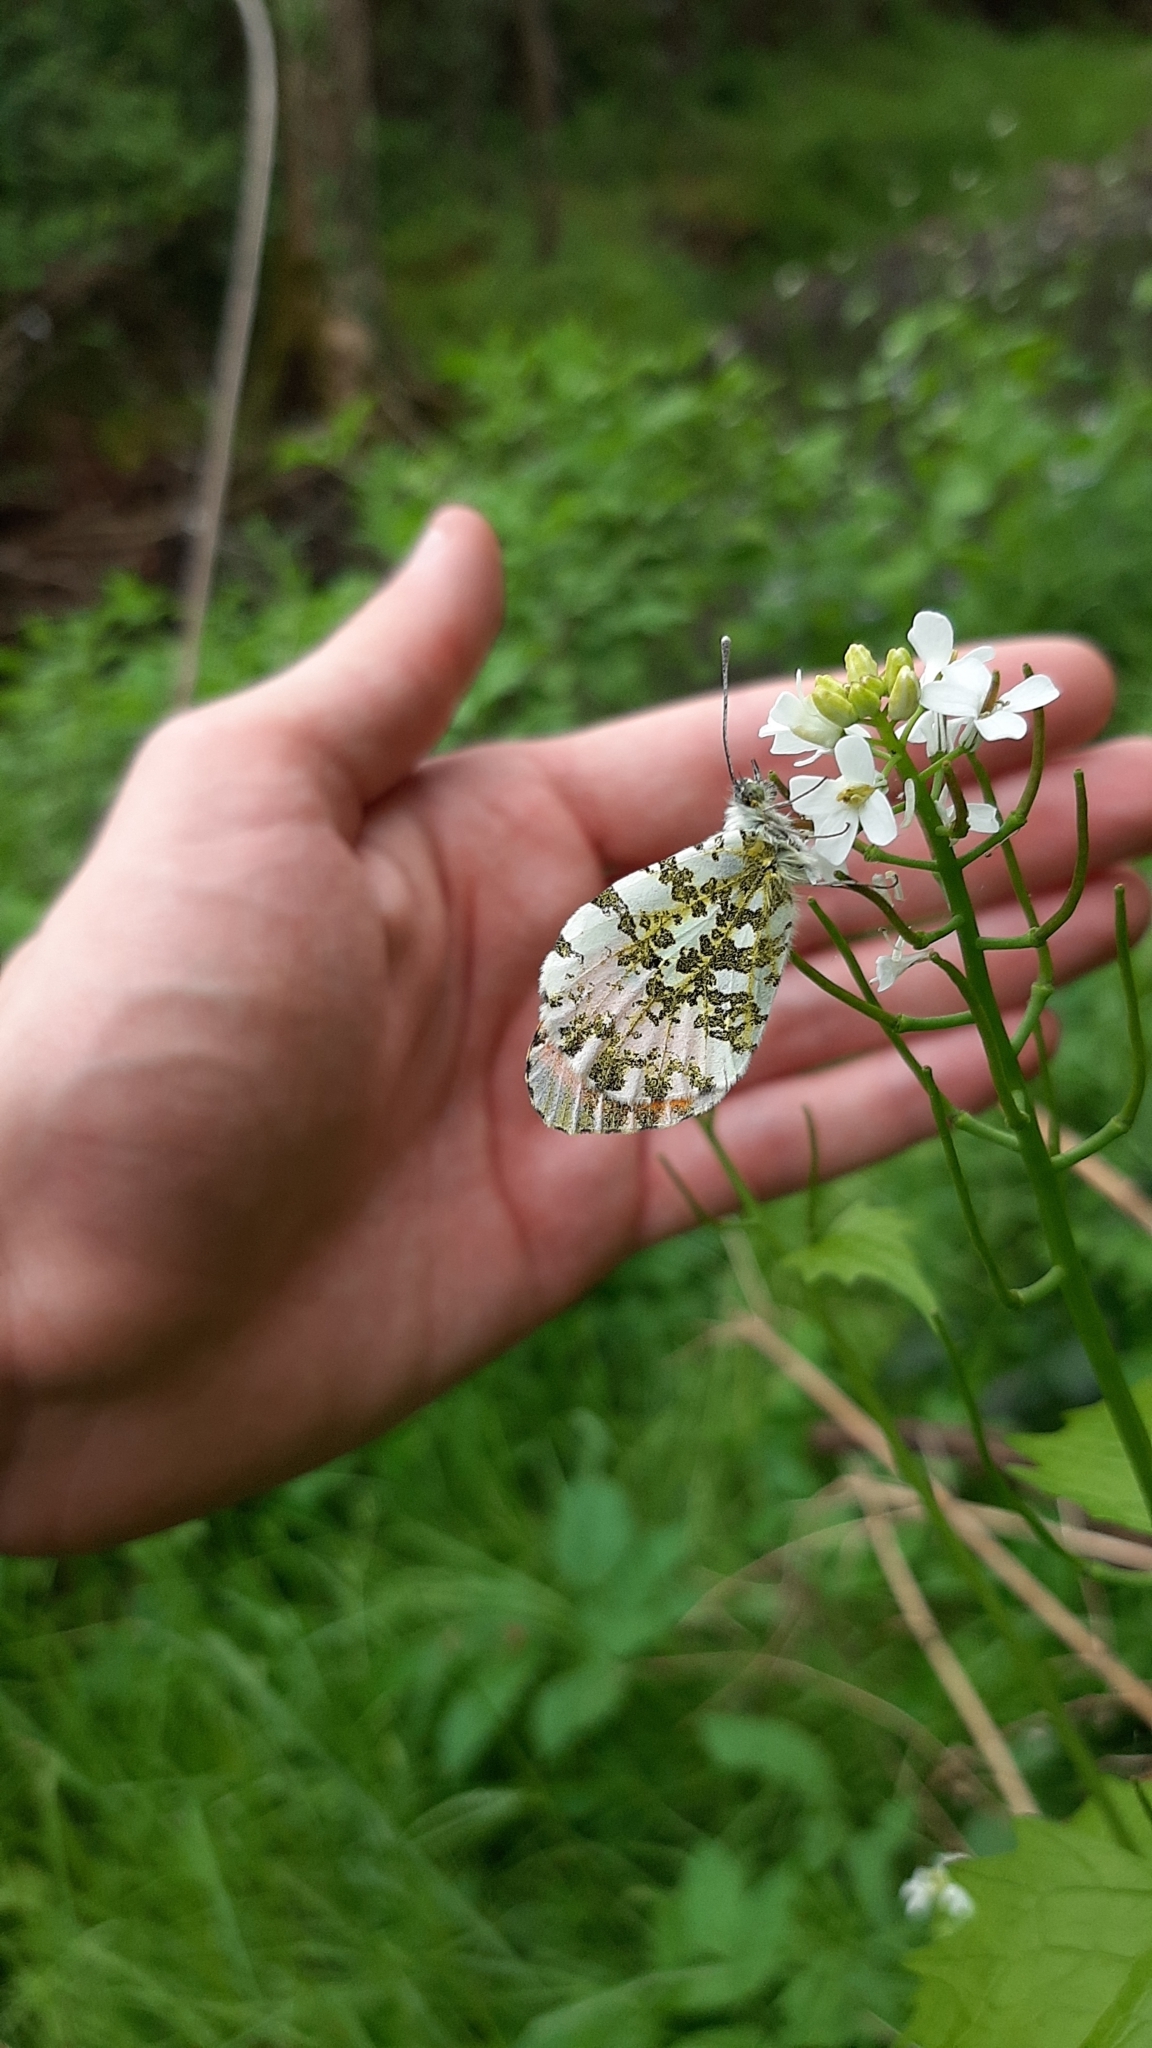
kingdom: Plantae
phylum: Tracheophyta
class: Magnoliopsida
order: Brassicales
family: Brassicaceae
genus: Alliaria
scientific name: Alliaria petiolata
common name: Garlic mustard
